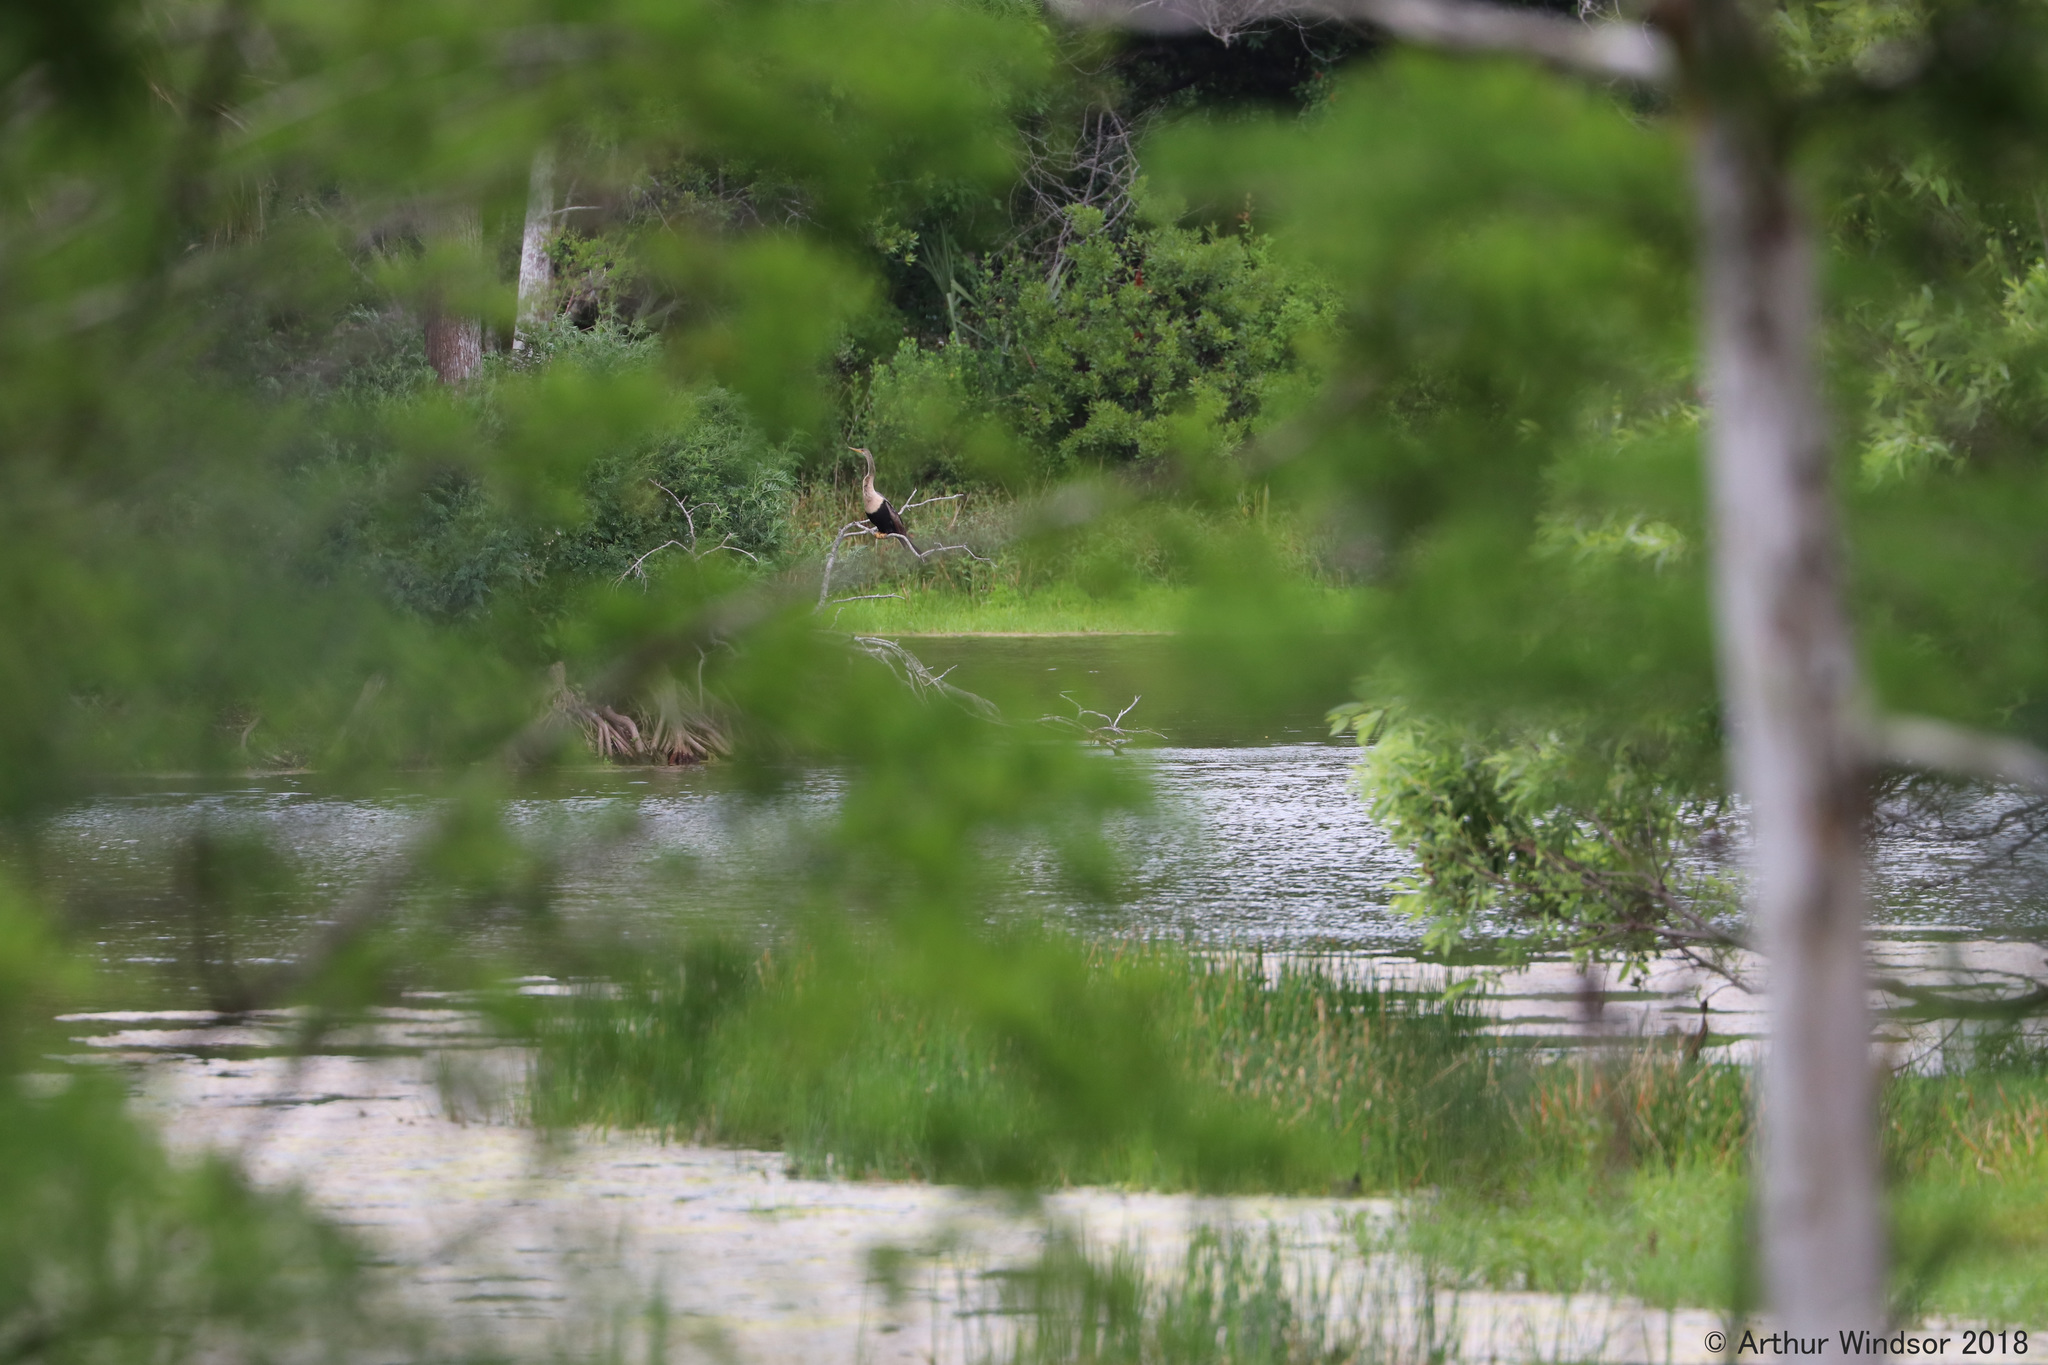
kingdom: Animalia
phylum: Chordata
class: Aves
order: Suliformes
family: Anhingidae
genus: Anhinga
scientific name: Anhinga anhinga
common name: Anhinga
